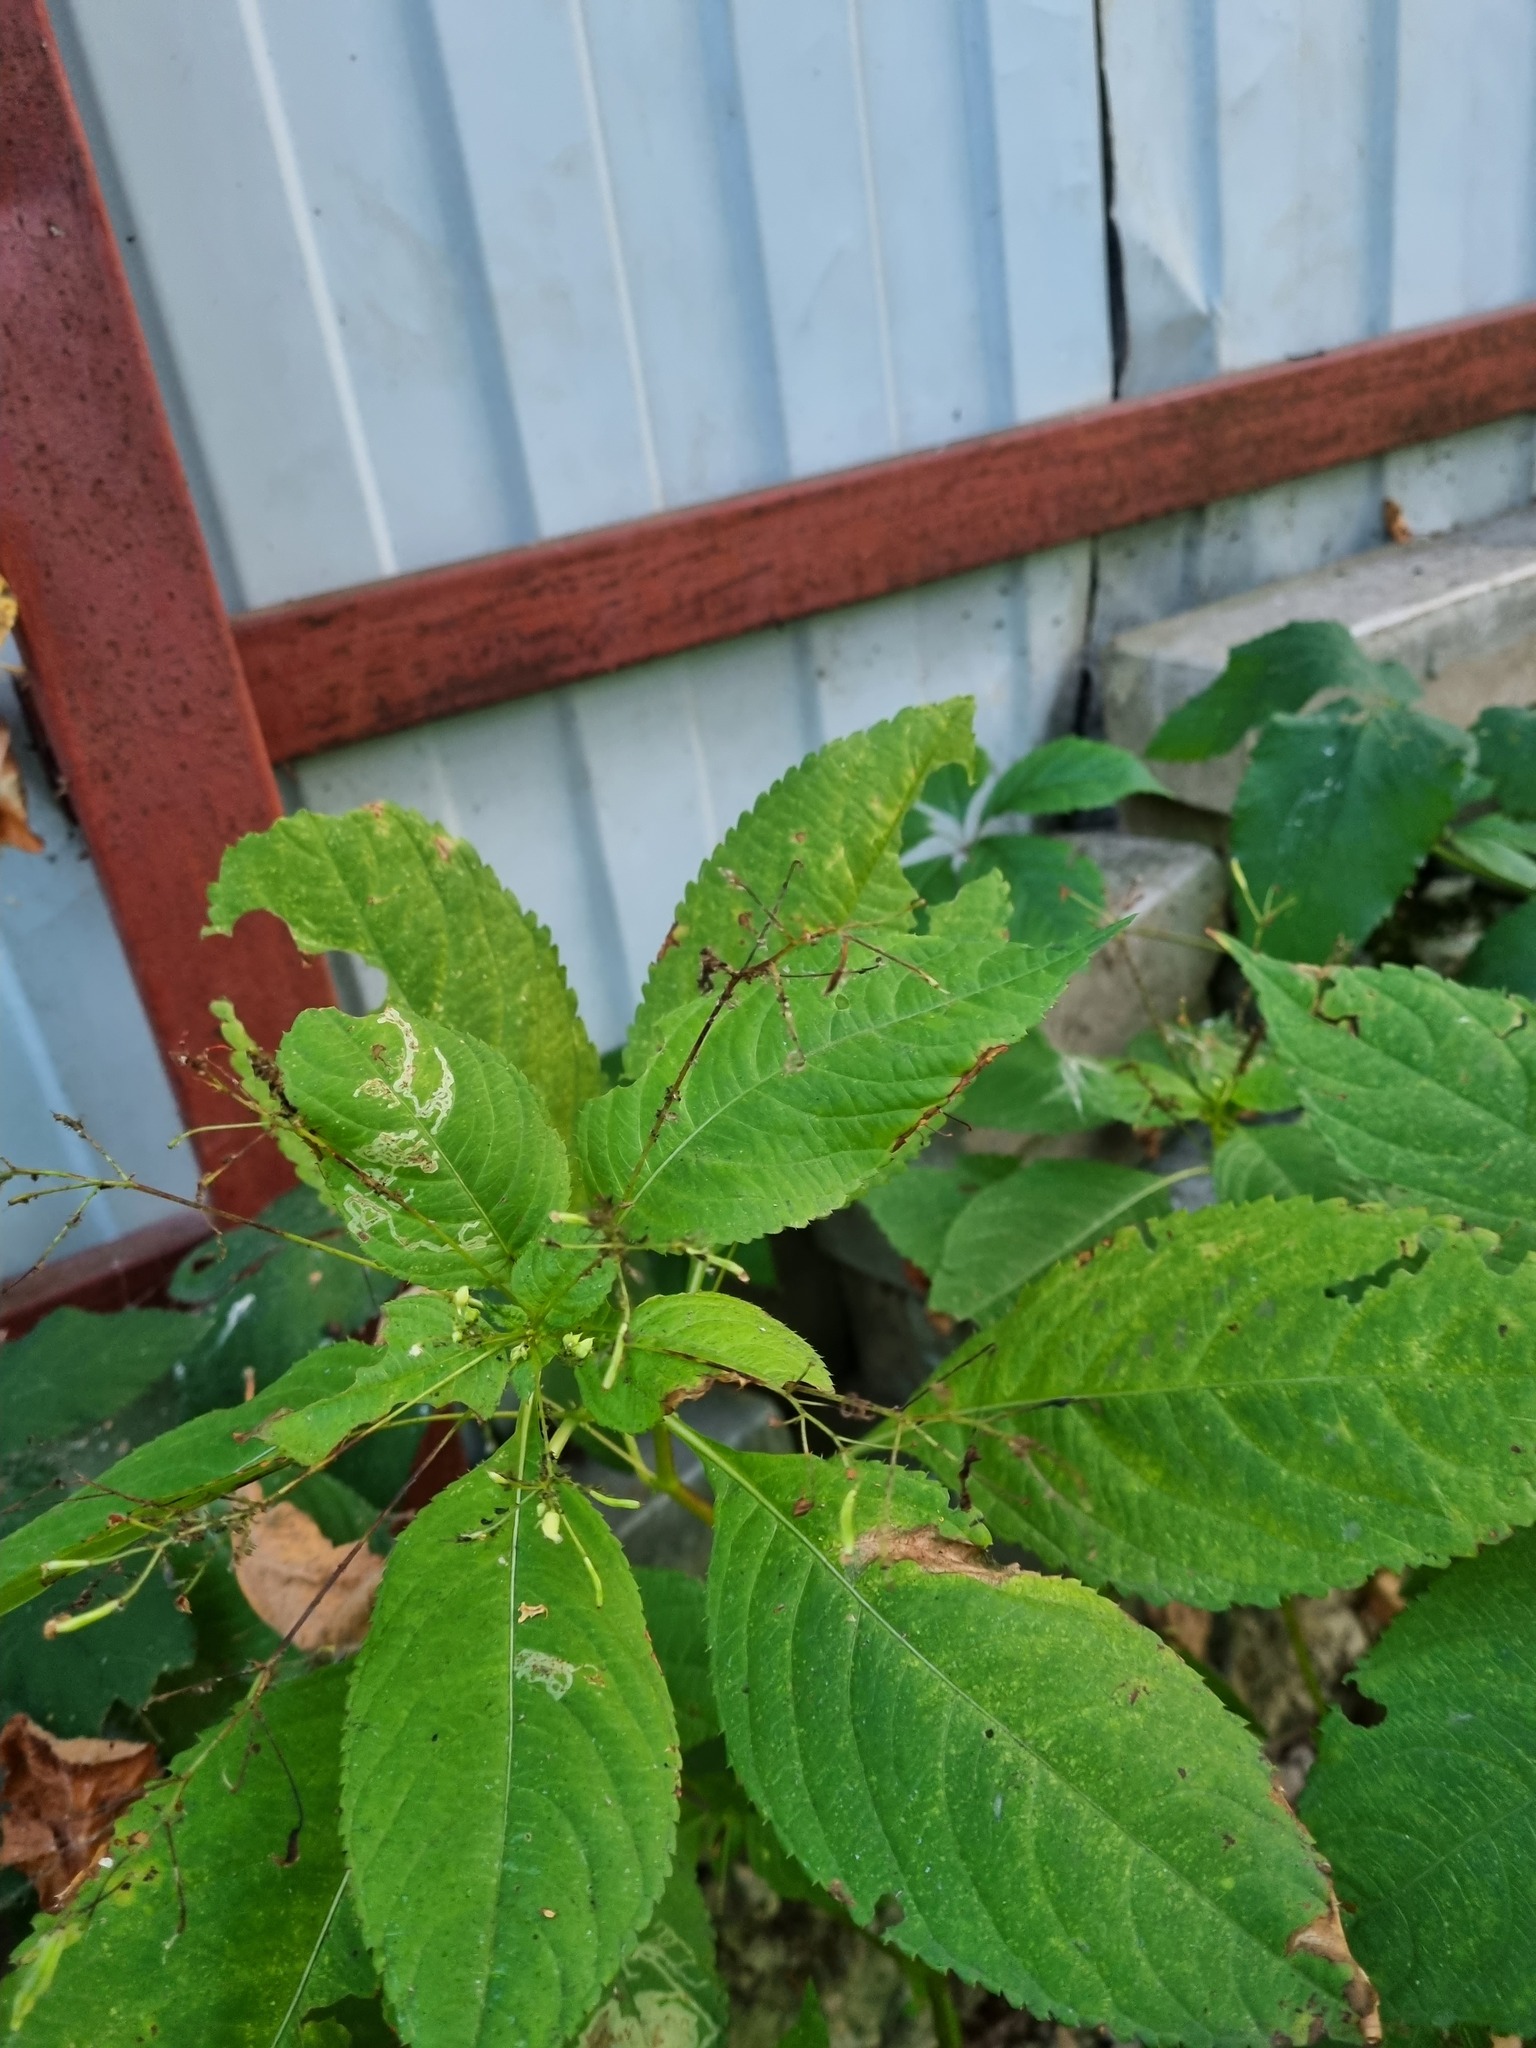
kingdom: Plantae
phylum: Tracheophyta
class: Magnoliopsida
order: Ericales
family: Balsaminaceae
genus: Impatiens
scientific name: Impatiens parviflora
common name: Small balsam
